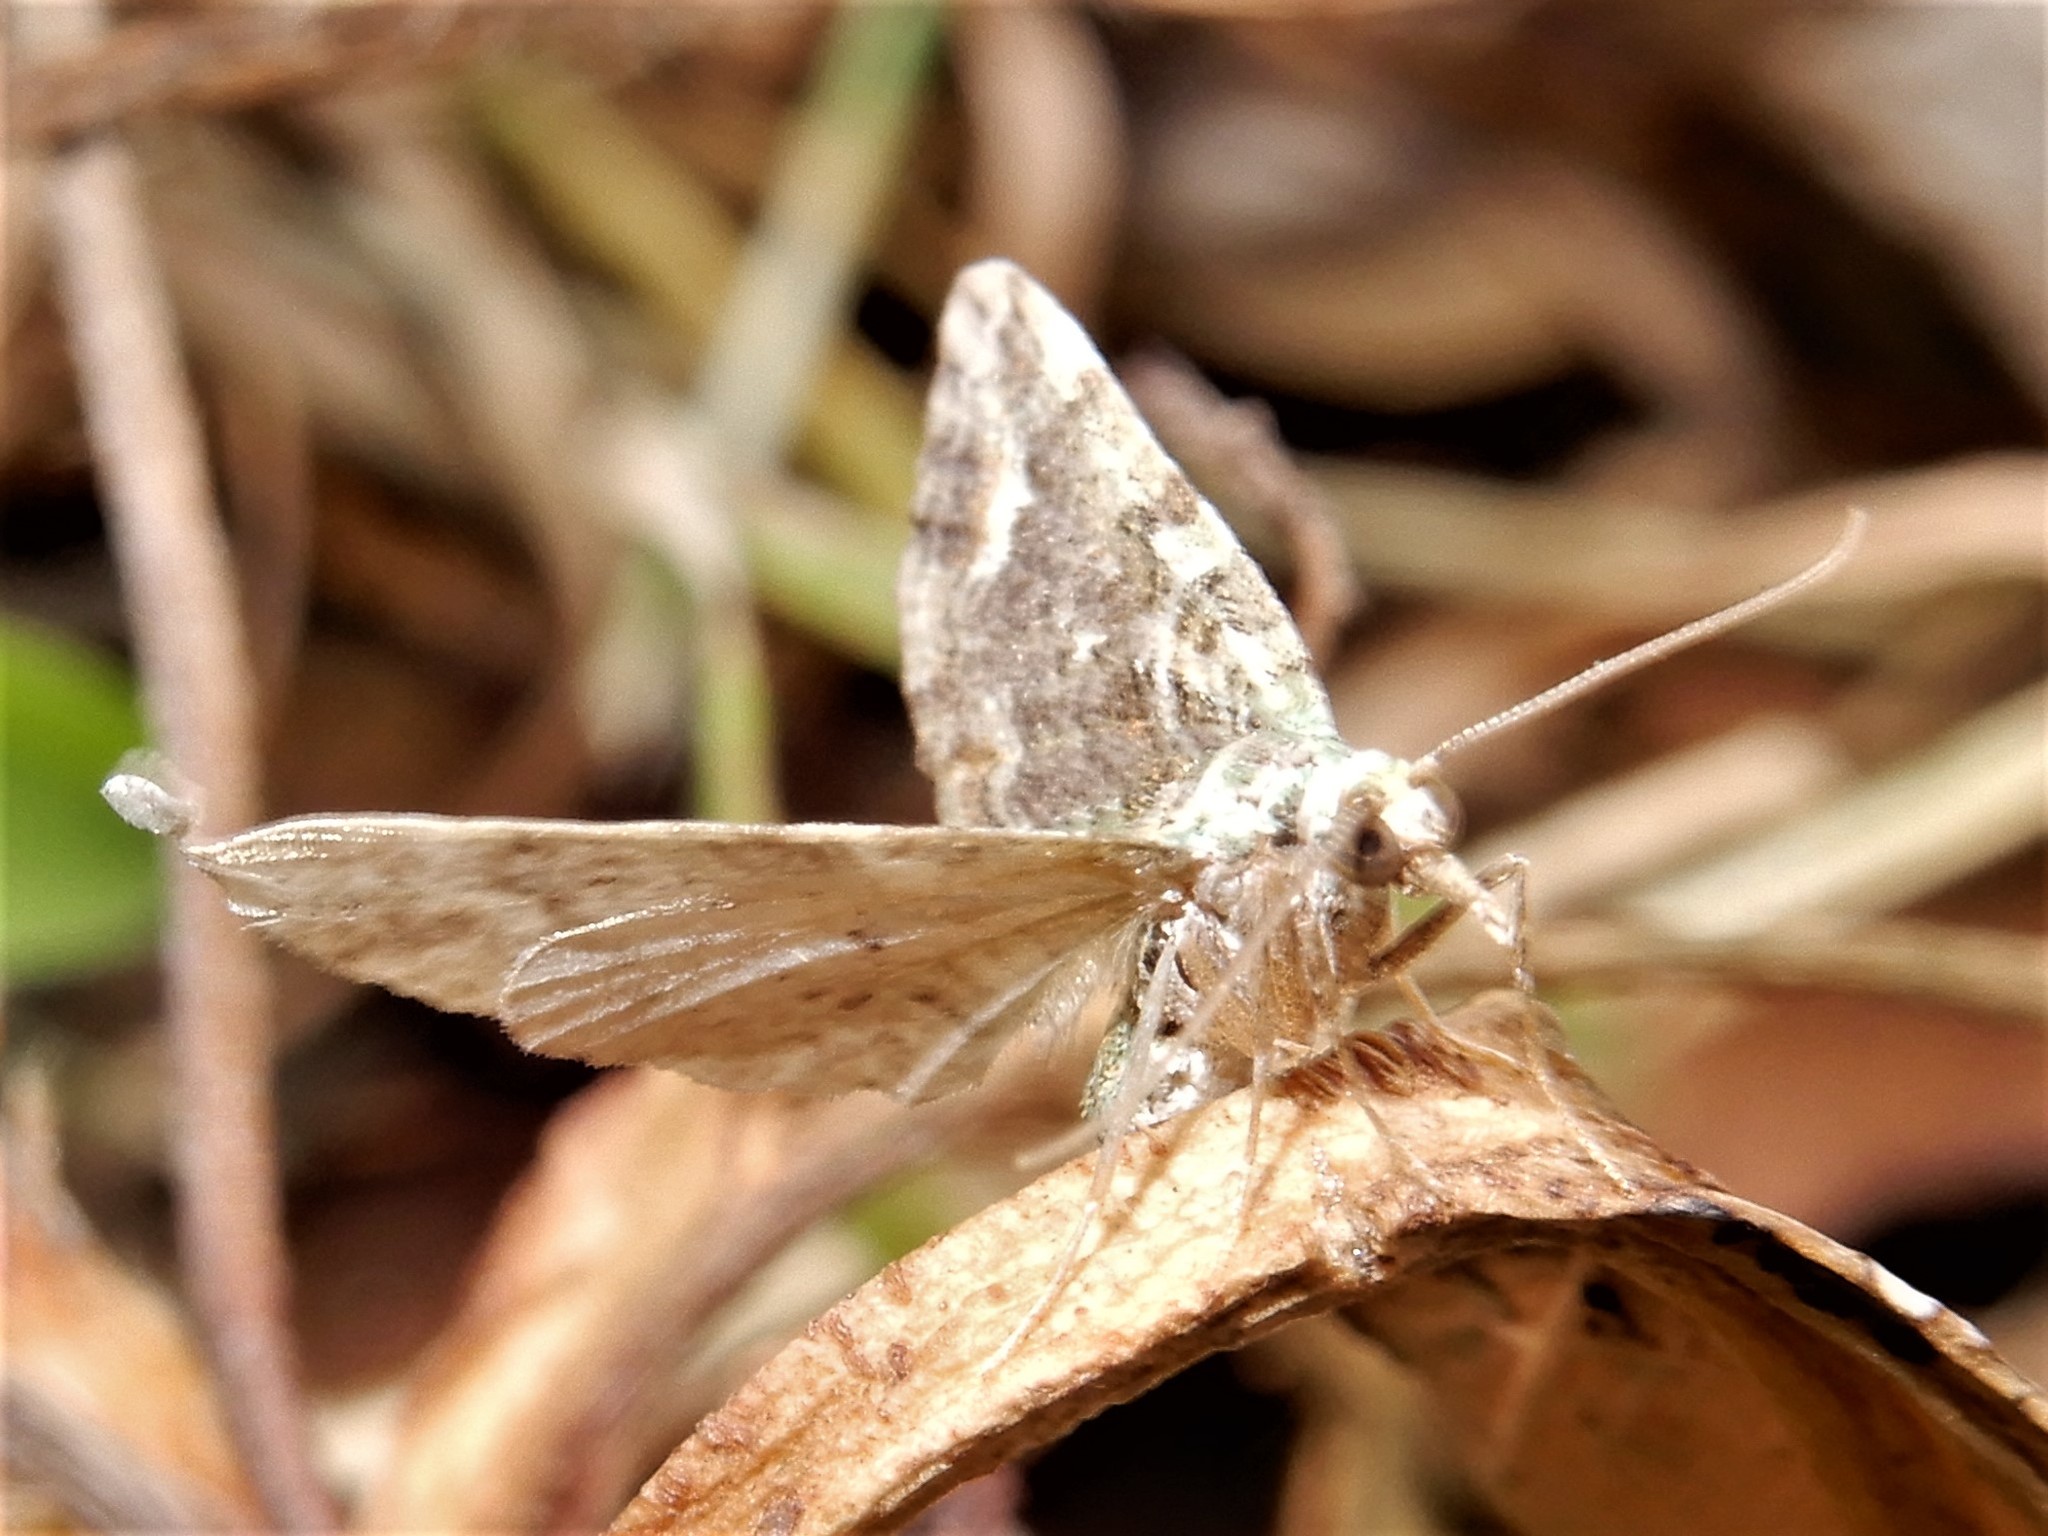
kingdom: Animalia
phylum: Arthropoda
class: Insecta
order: Lepidoptera
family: Geometridae
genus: Idaea
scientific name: Idaea mutanda
